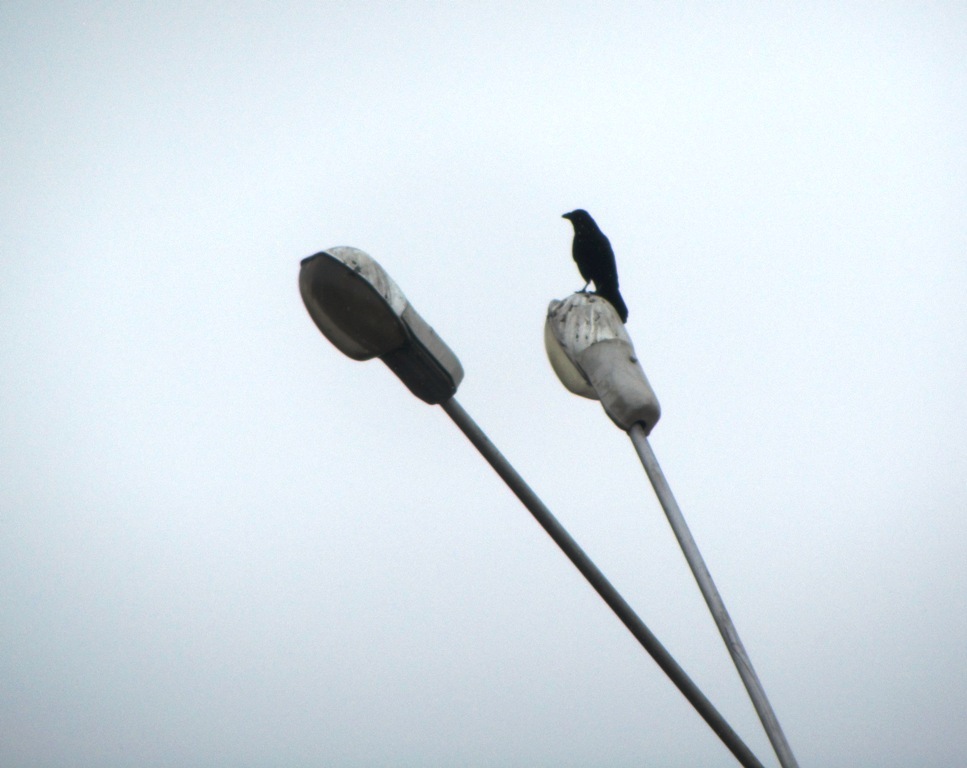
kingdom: Animalia
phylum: Chordata
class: Aves
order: Passeriformes
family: Corvidae
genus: Corvus
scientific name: Corvus corone
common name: Carrion crow
